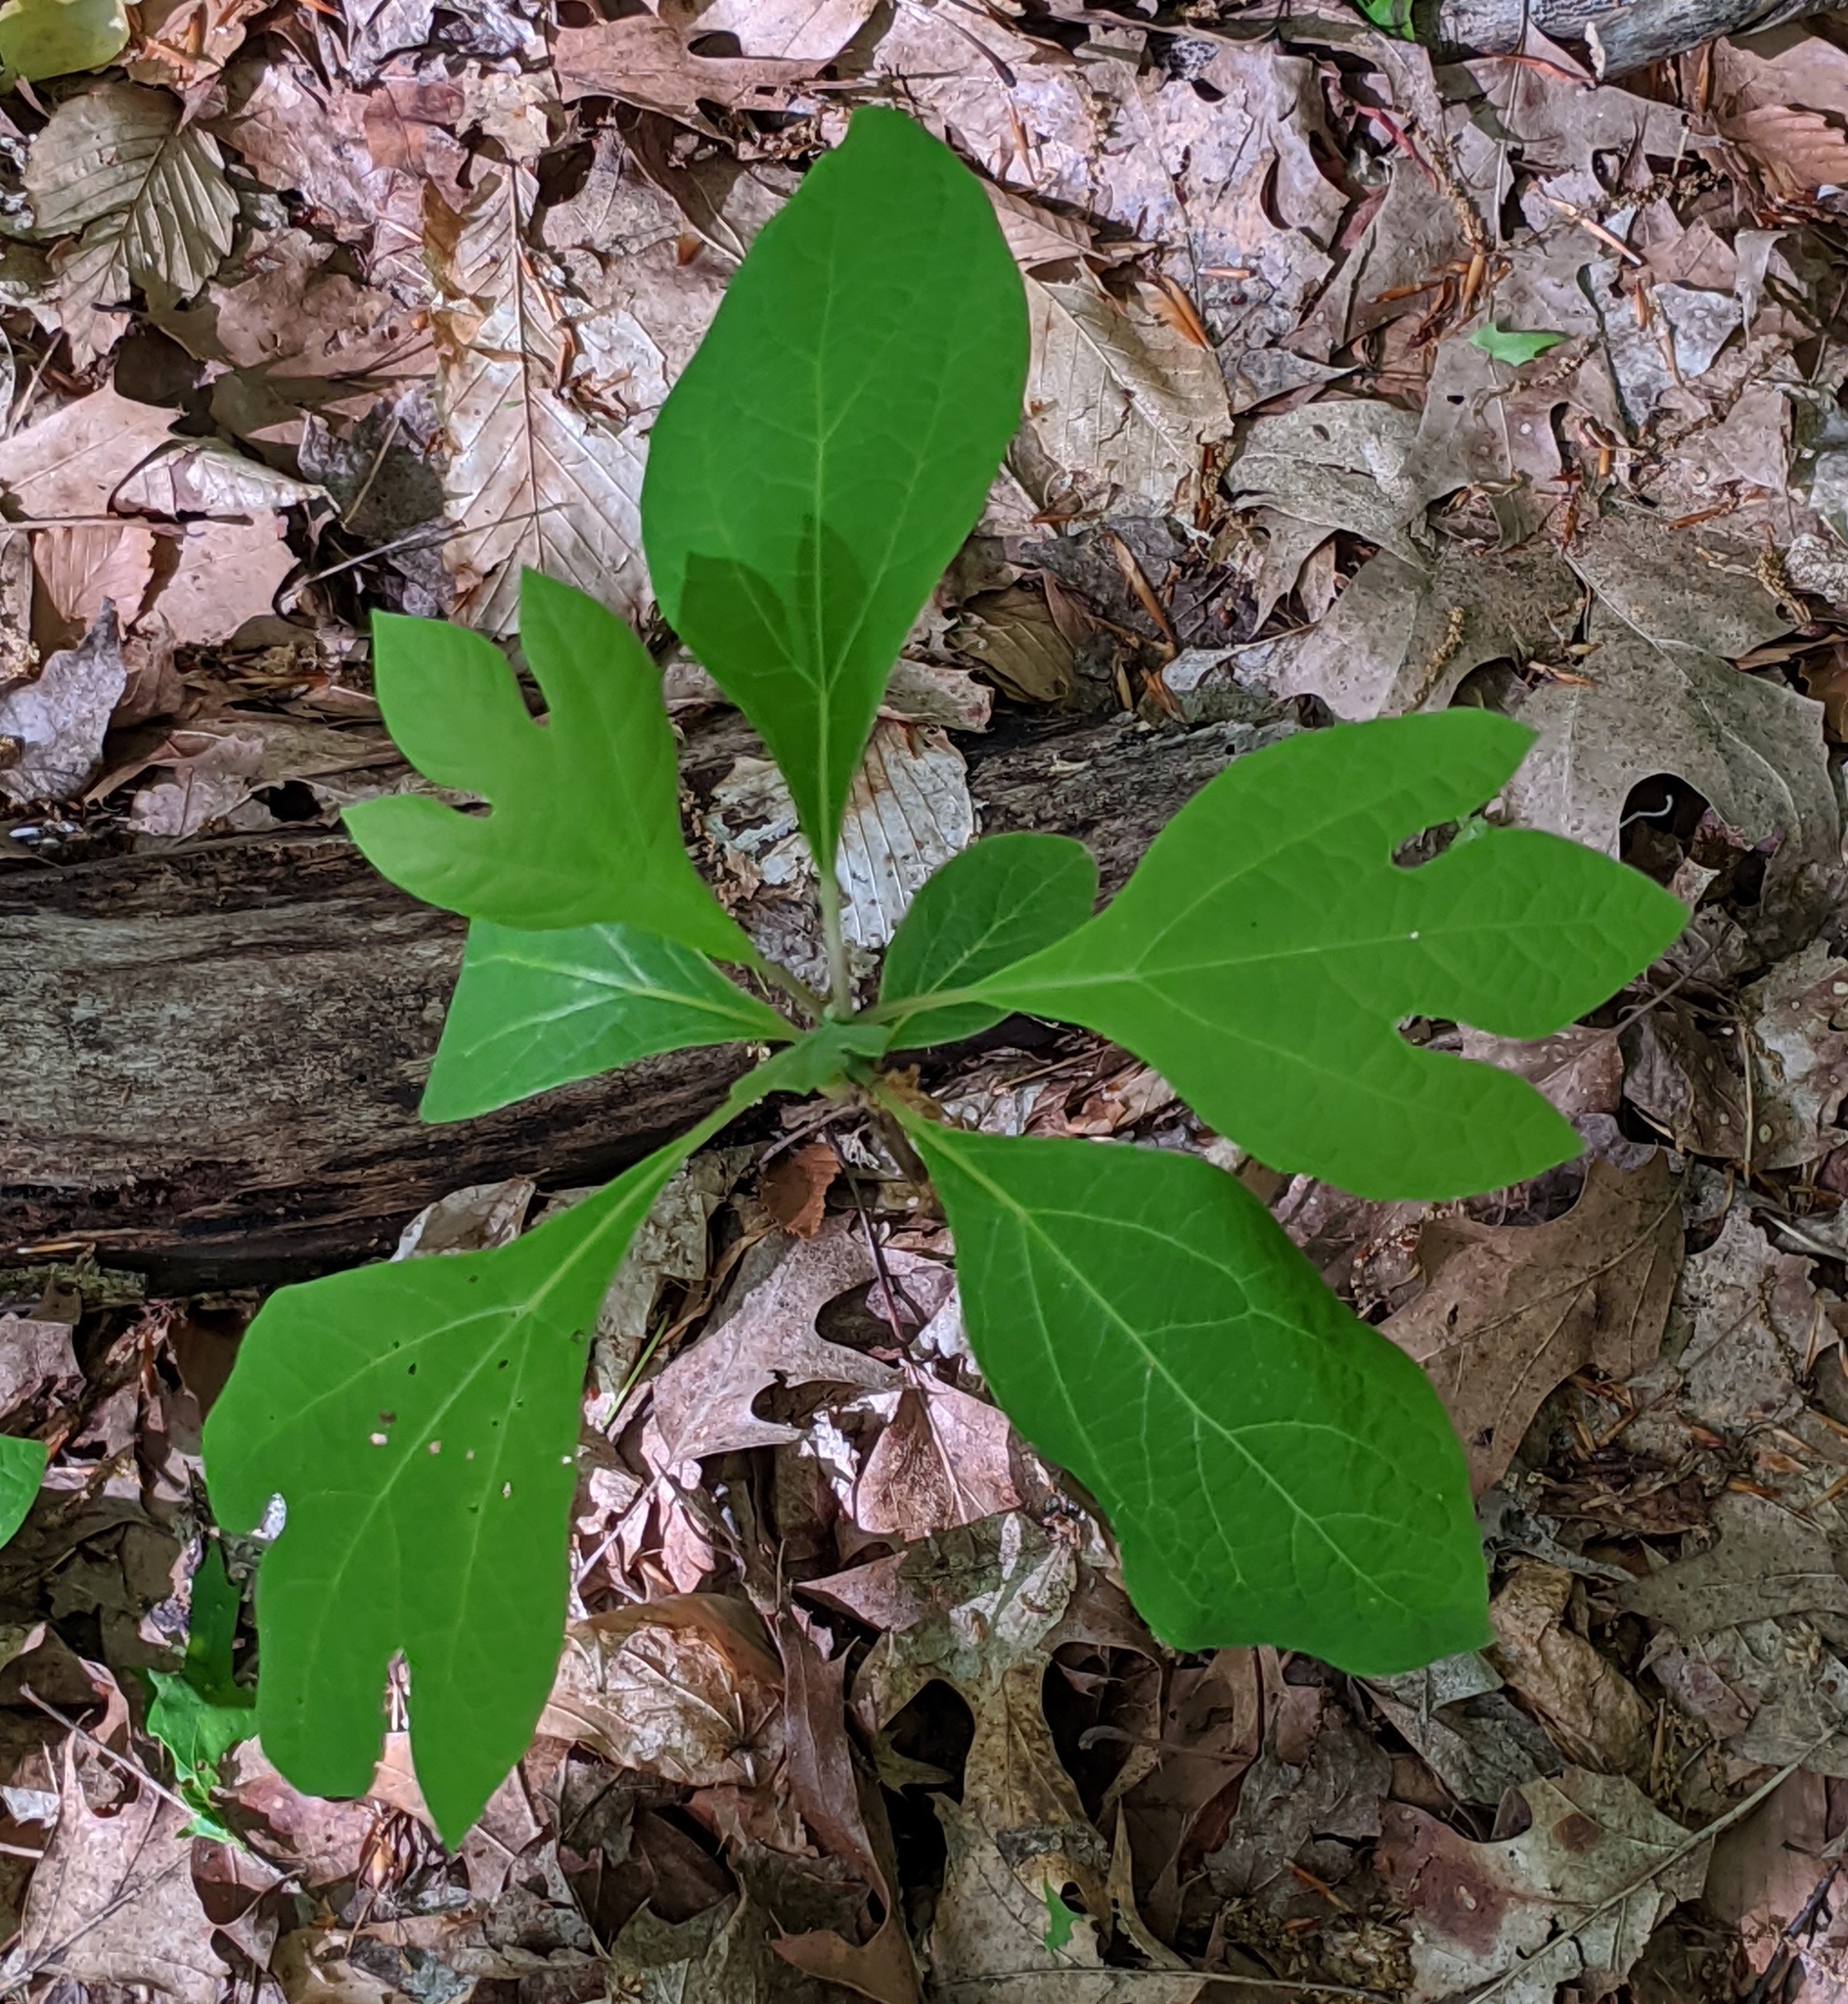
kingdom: Plantae
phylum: Tracheophyta
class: Magnoliopsida
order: Laurales
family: Lauraceae
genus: Sassafras
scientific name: Sassafras albidum
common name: Sassafras
